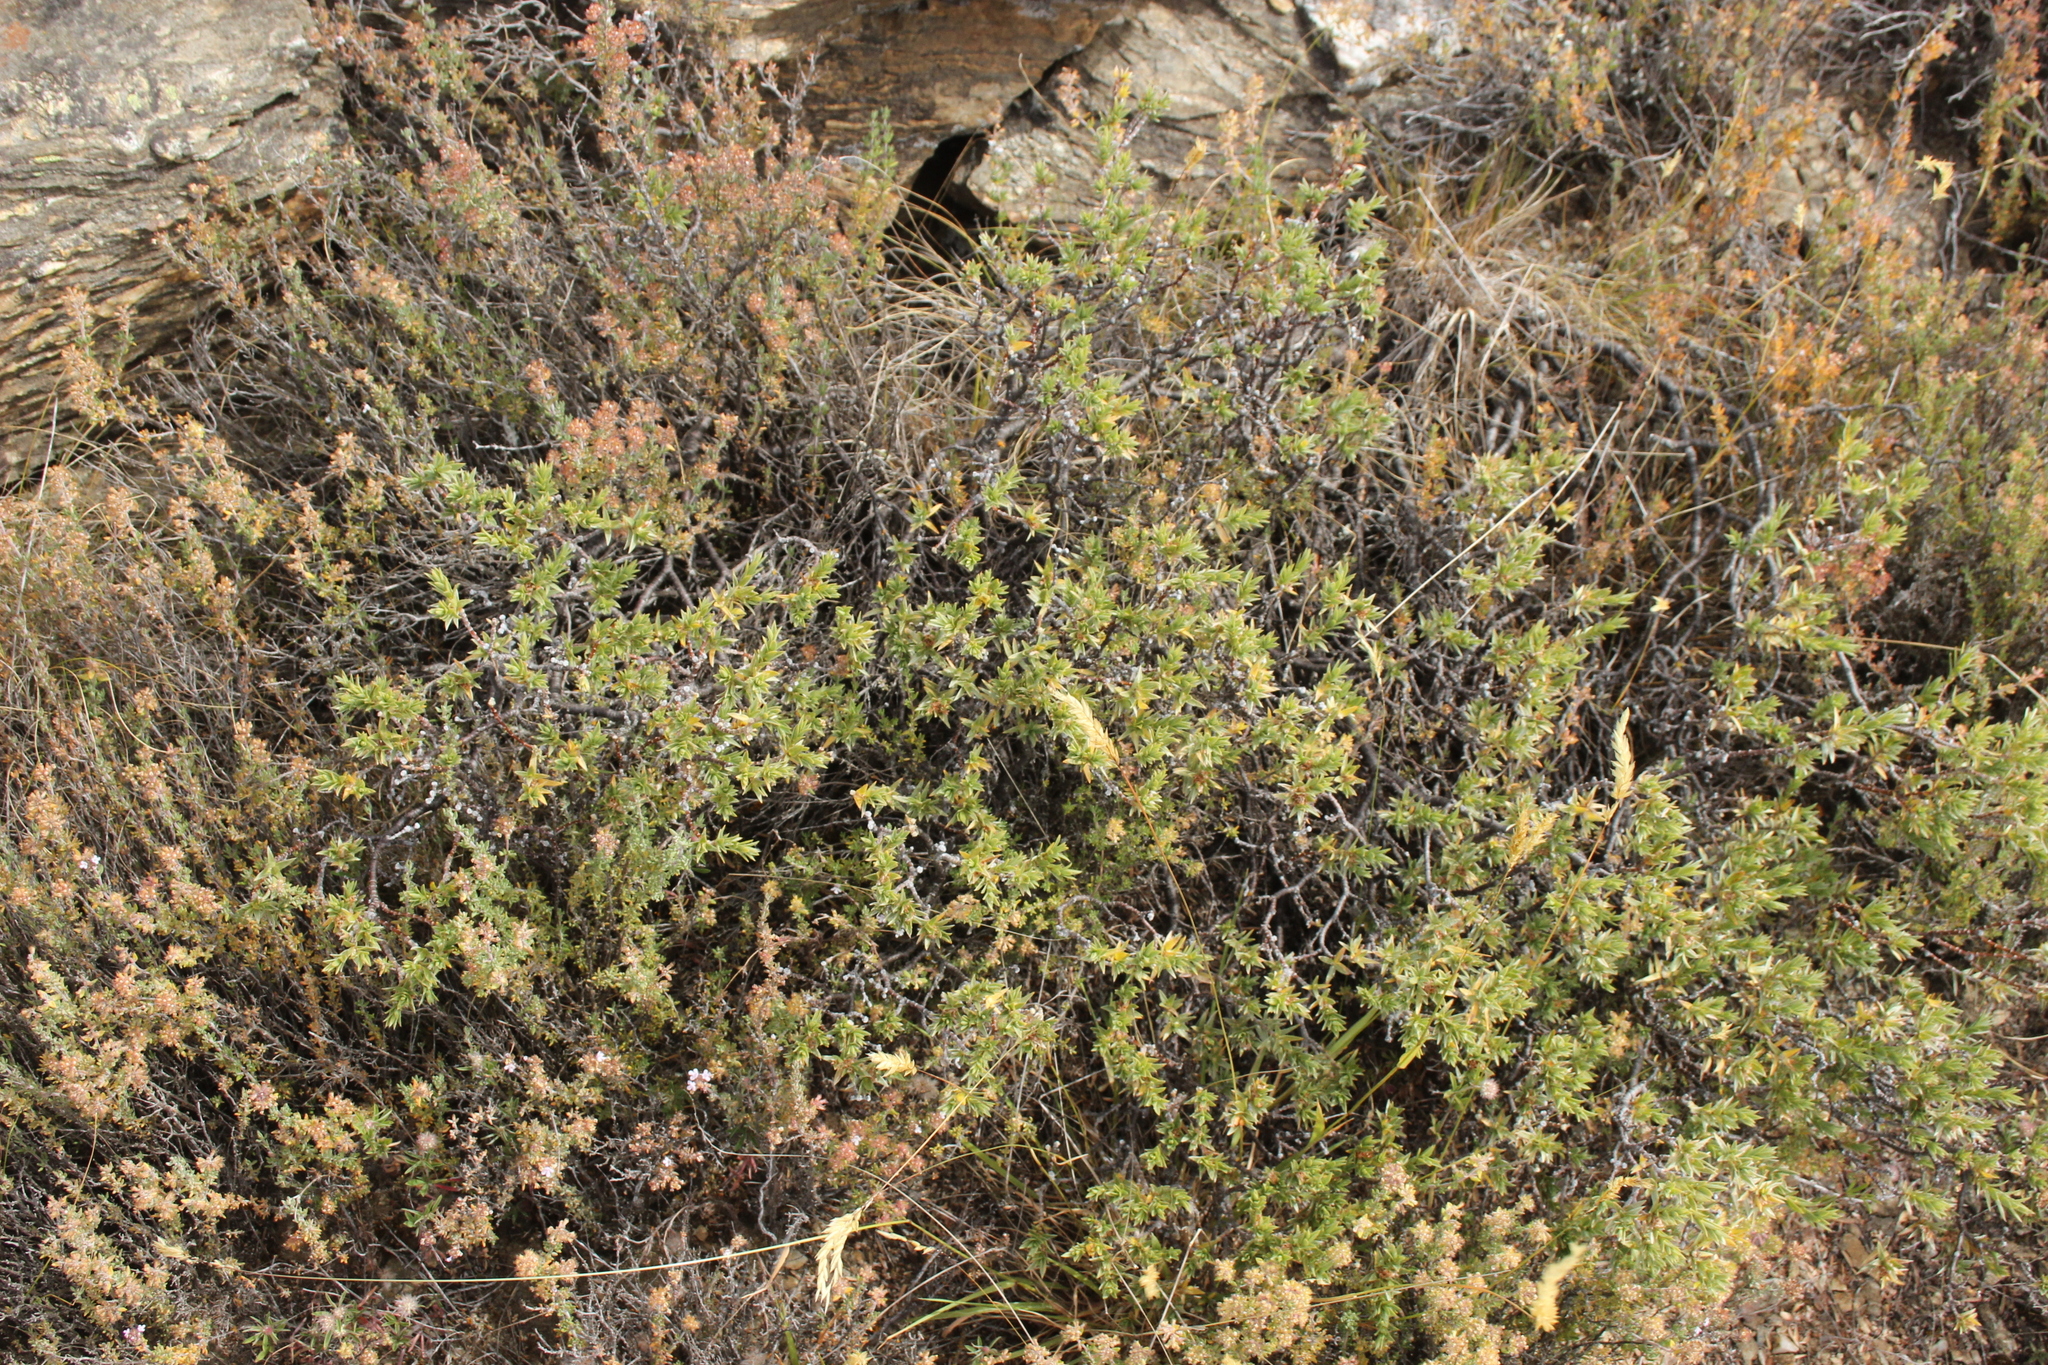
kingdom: Plantae
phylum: Tracheophyta
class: Magnoliopsida
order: Malvales
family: Thymelaeaceae
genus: Pimelea
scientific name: Pimelea oreophila
